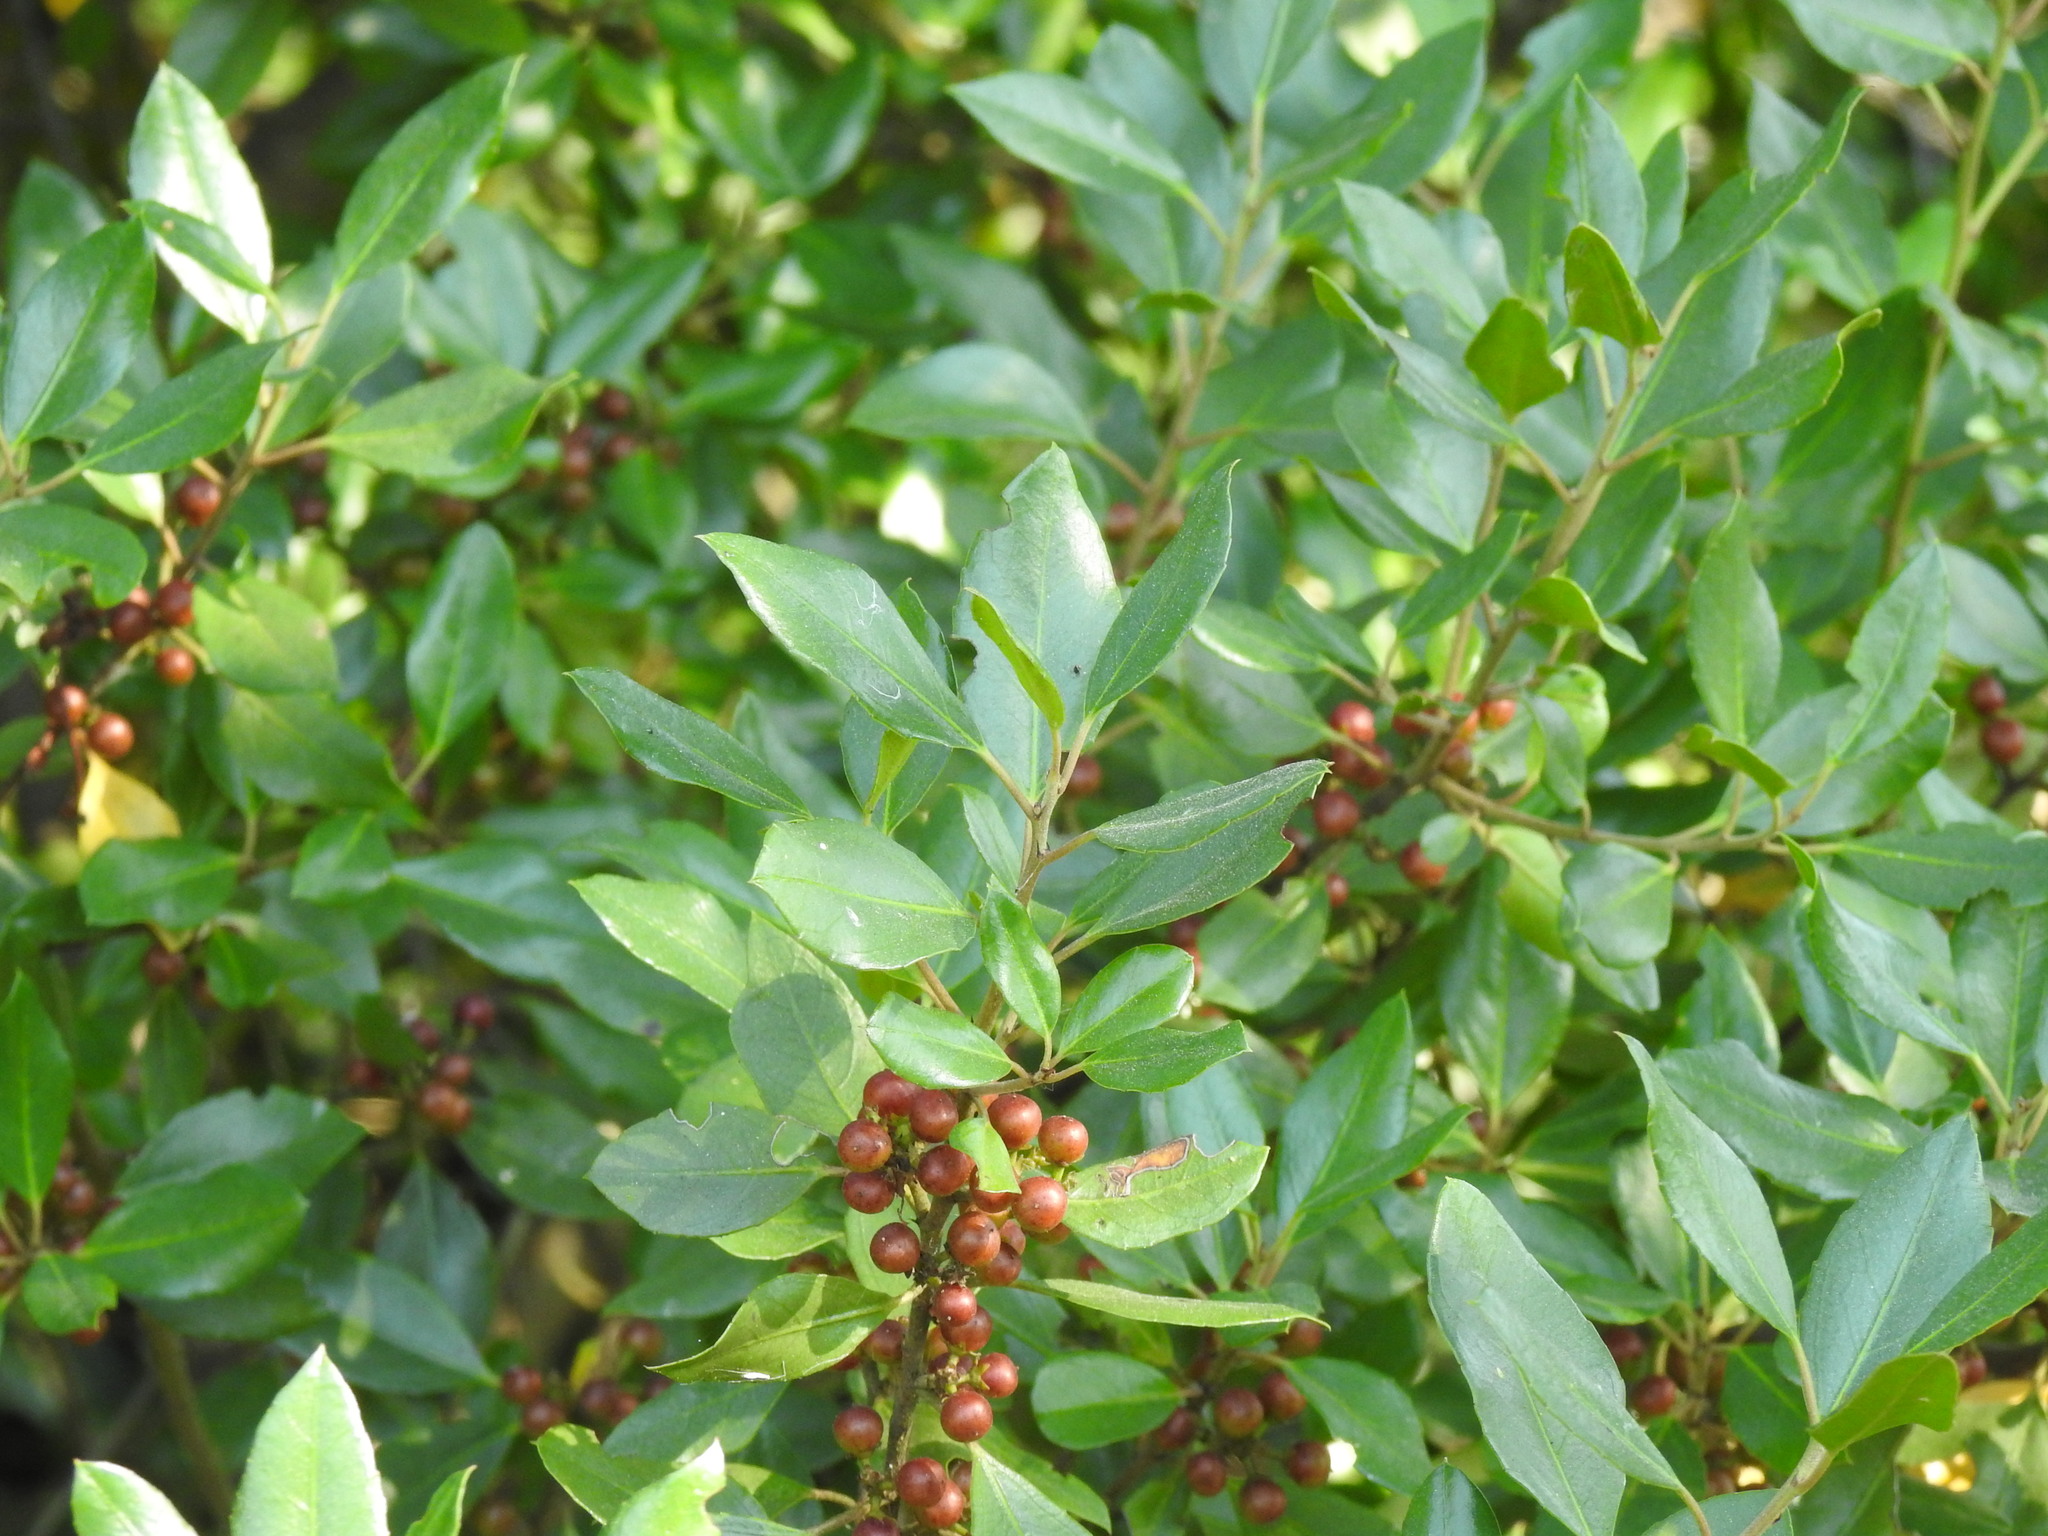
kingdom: Plantae
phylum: Tracheophyta
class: Magnoliopsida
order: Rosales
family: Rhamnaceae
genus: Rhamnus
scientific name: Rhamnus alaternus
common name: Mediterranean buckthorn
